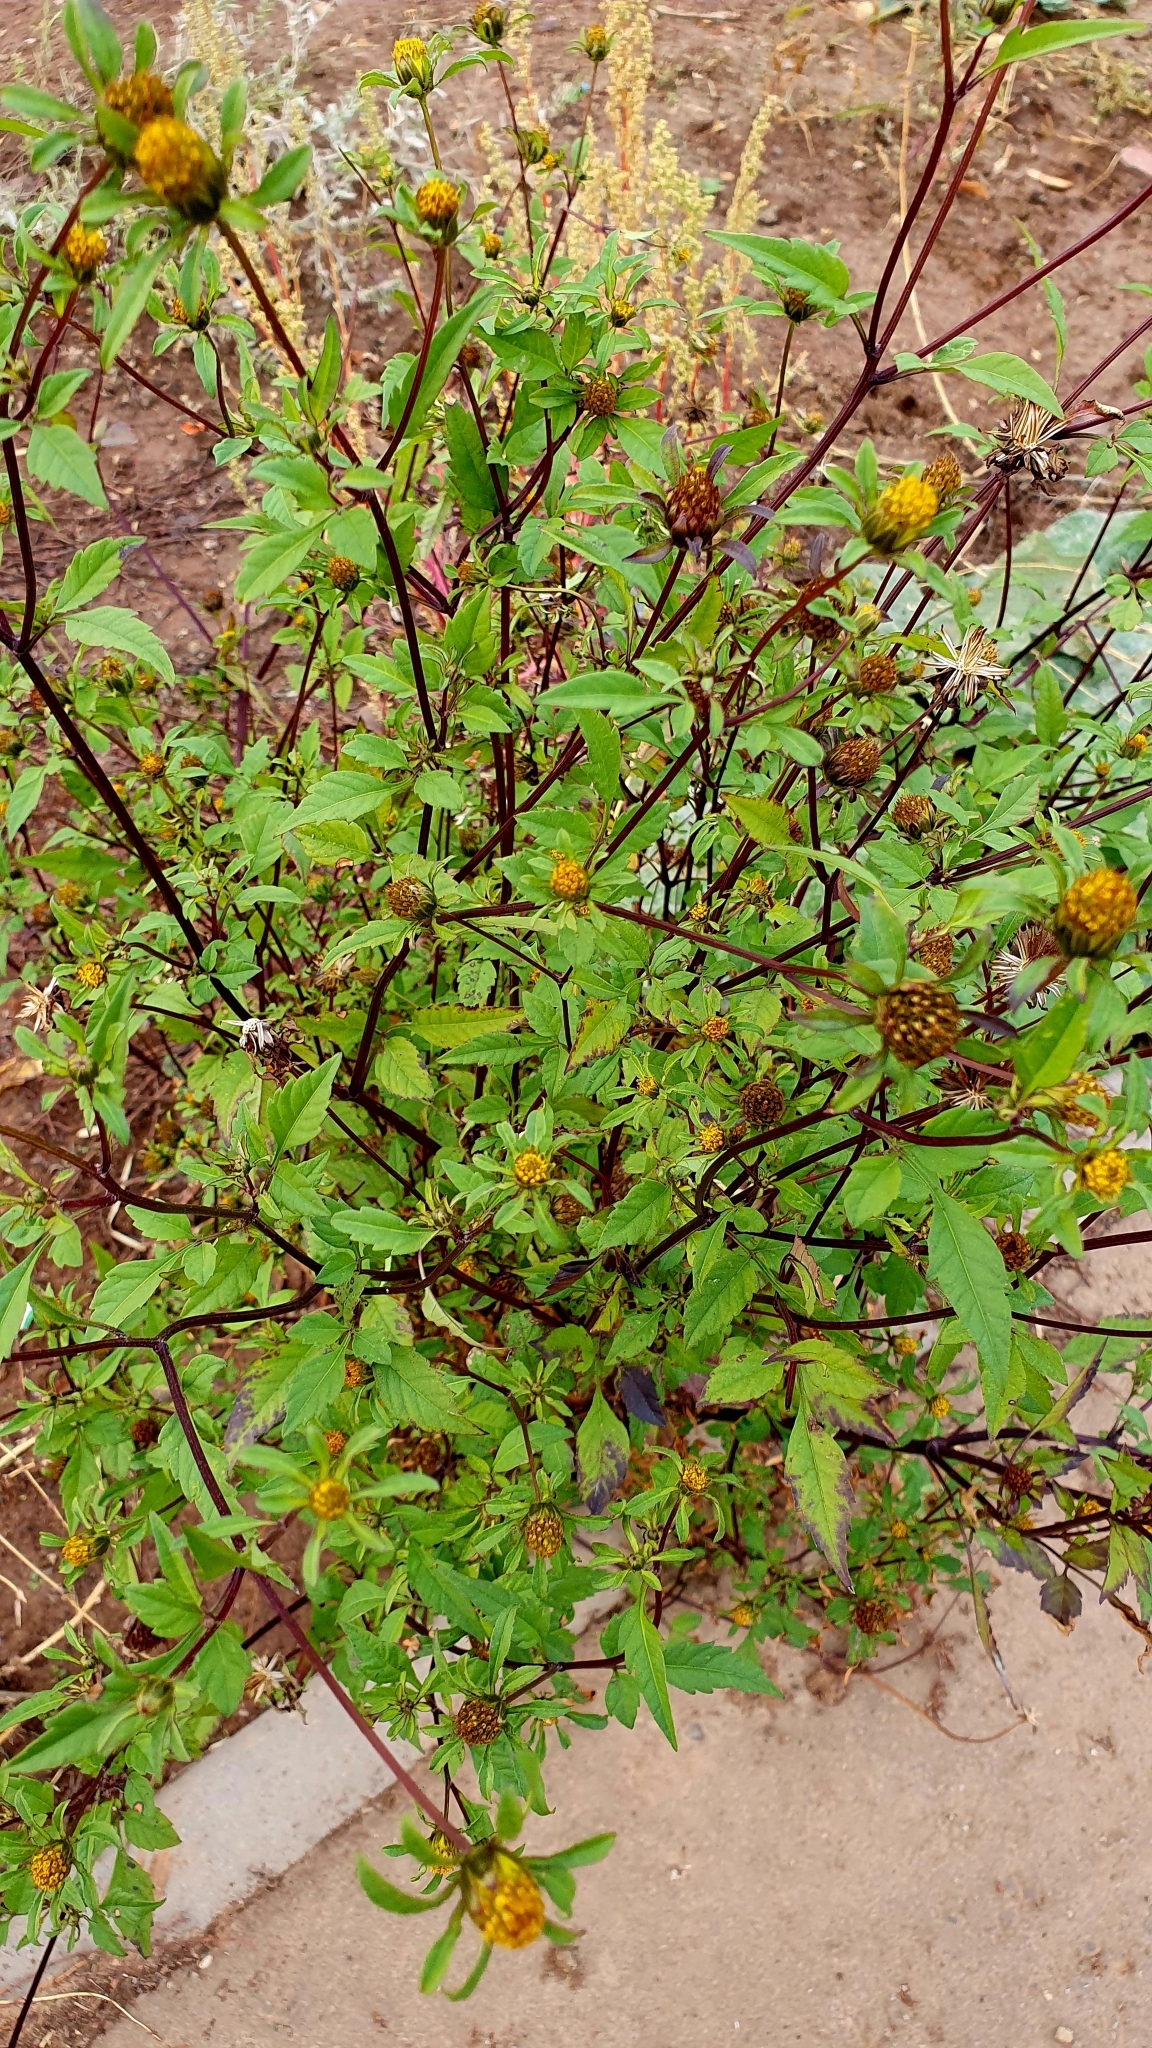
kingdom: Plantae
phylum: Tracheophyta
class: Magnoliopsida
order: Asterales
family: Asteraceae
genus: Bidens
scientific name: Bidens frondosa
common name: Beggarticks
